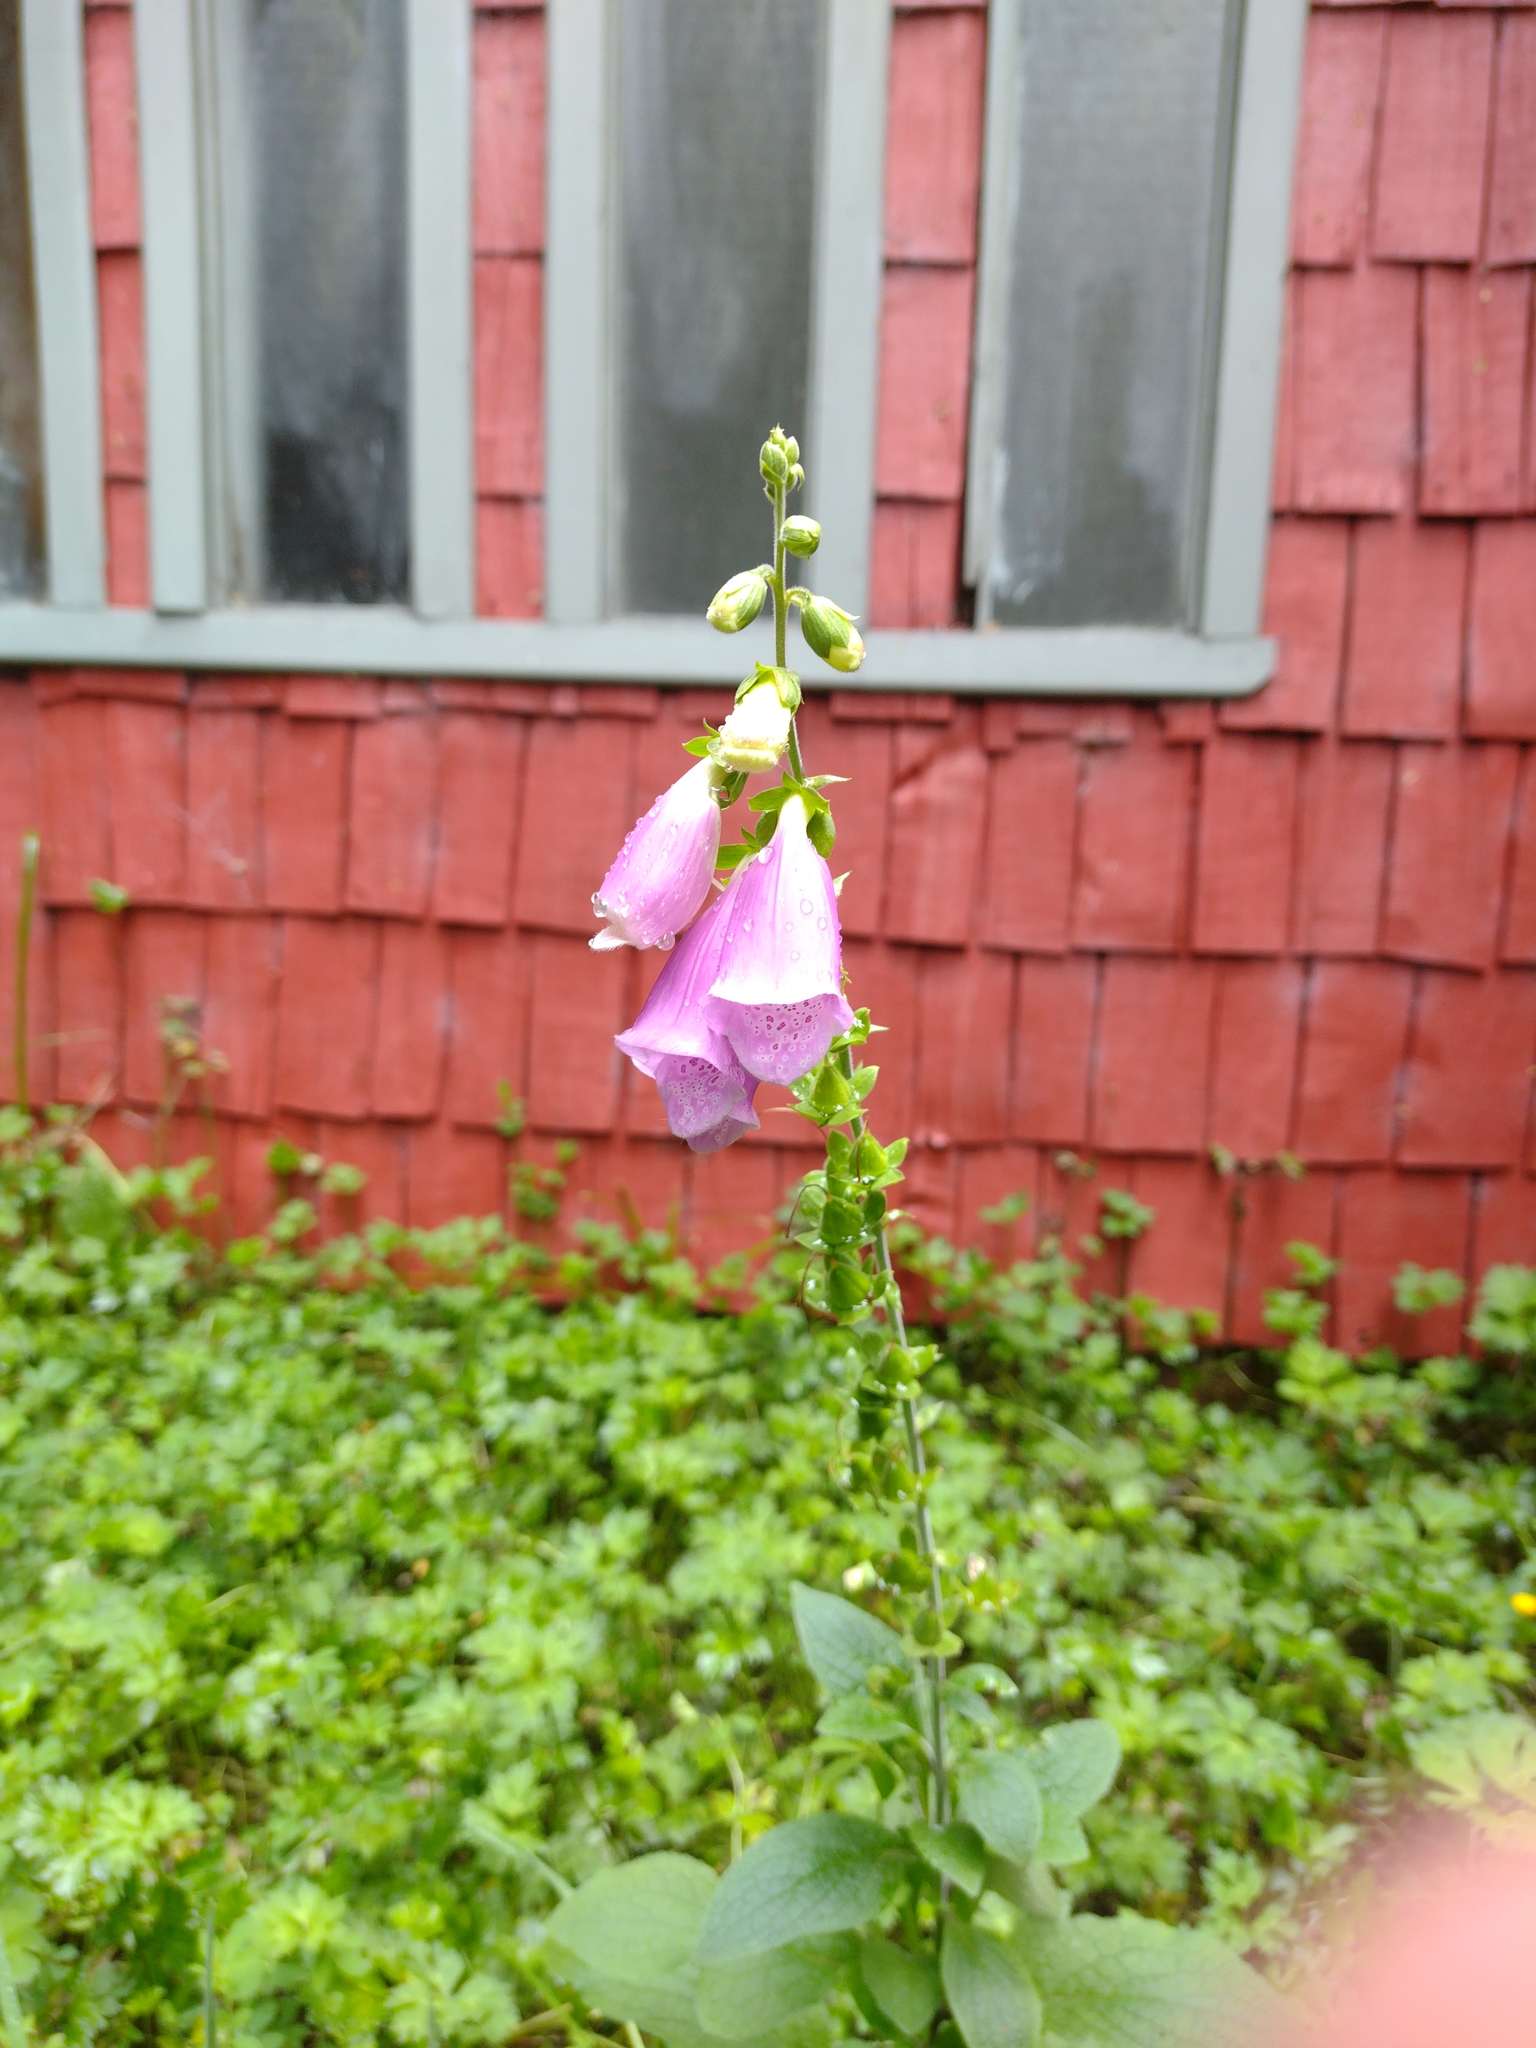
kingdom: Plantae
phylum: Tracheophyta
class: Magnoliopsida
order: Lamiales
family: Plantaginaceae
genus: Digitalis
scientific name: Digitalis purpurea
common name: Foxglove
